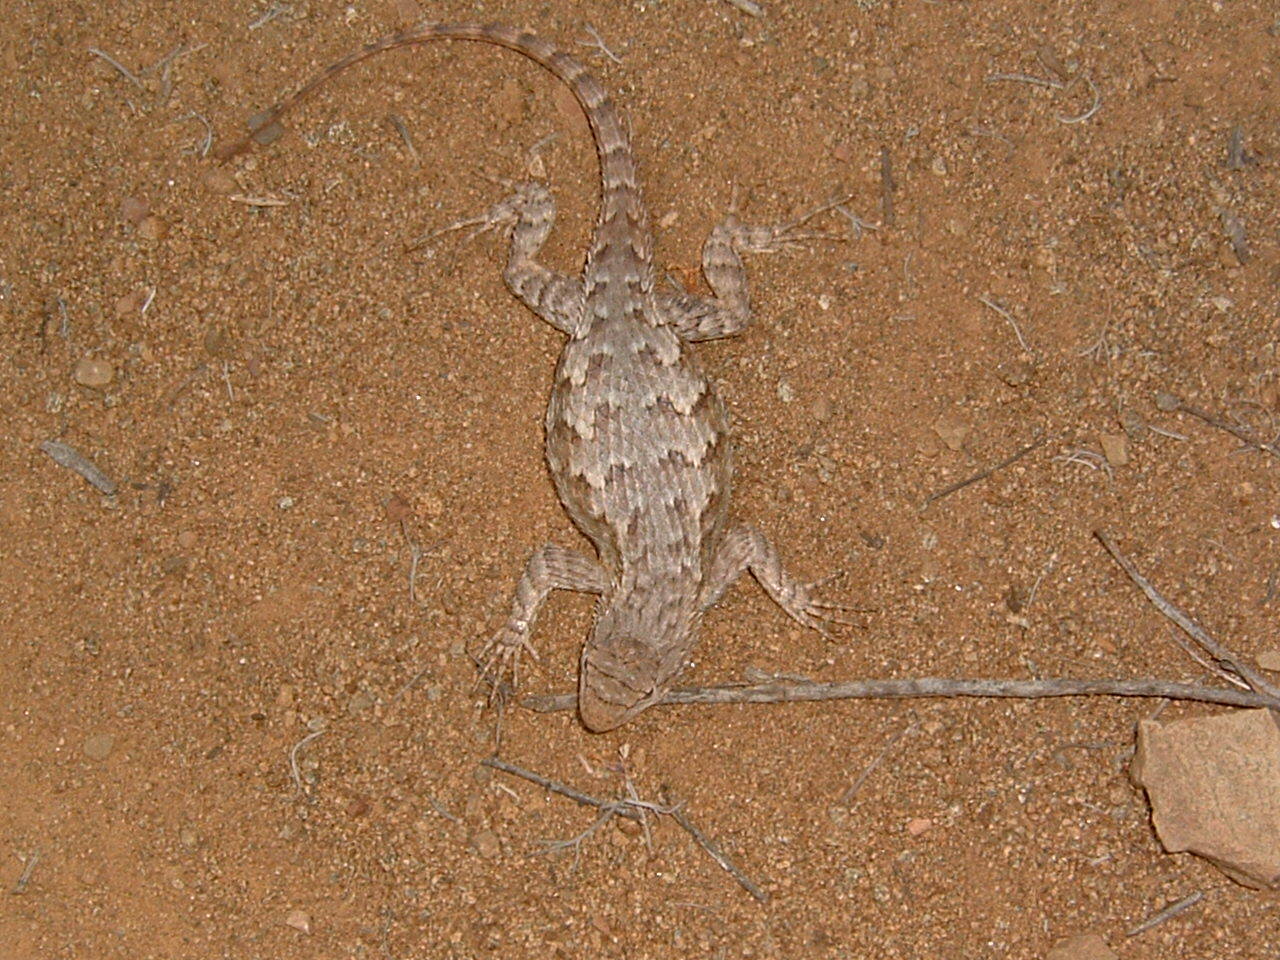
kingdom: Animalia
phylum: Chordata
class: Squamata
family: Phrynosomatidae
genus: Sceloporus
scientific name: Sceloporus occidentalis
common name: Western fence lizard
